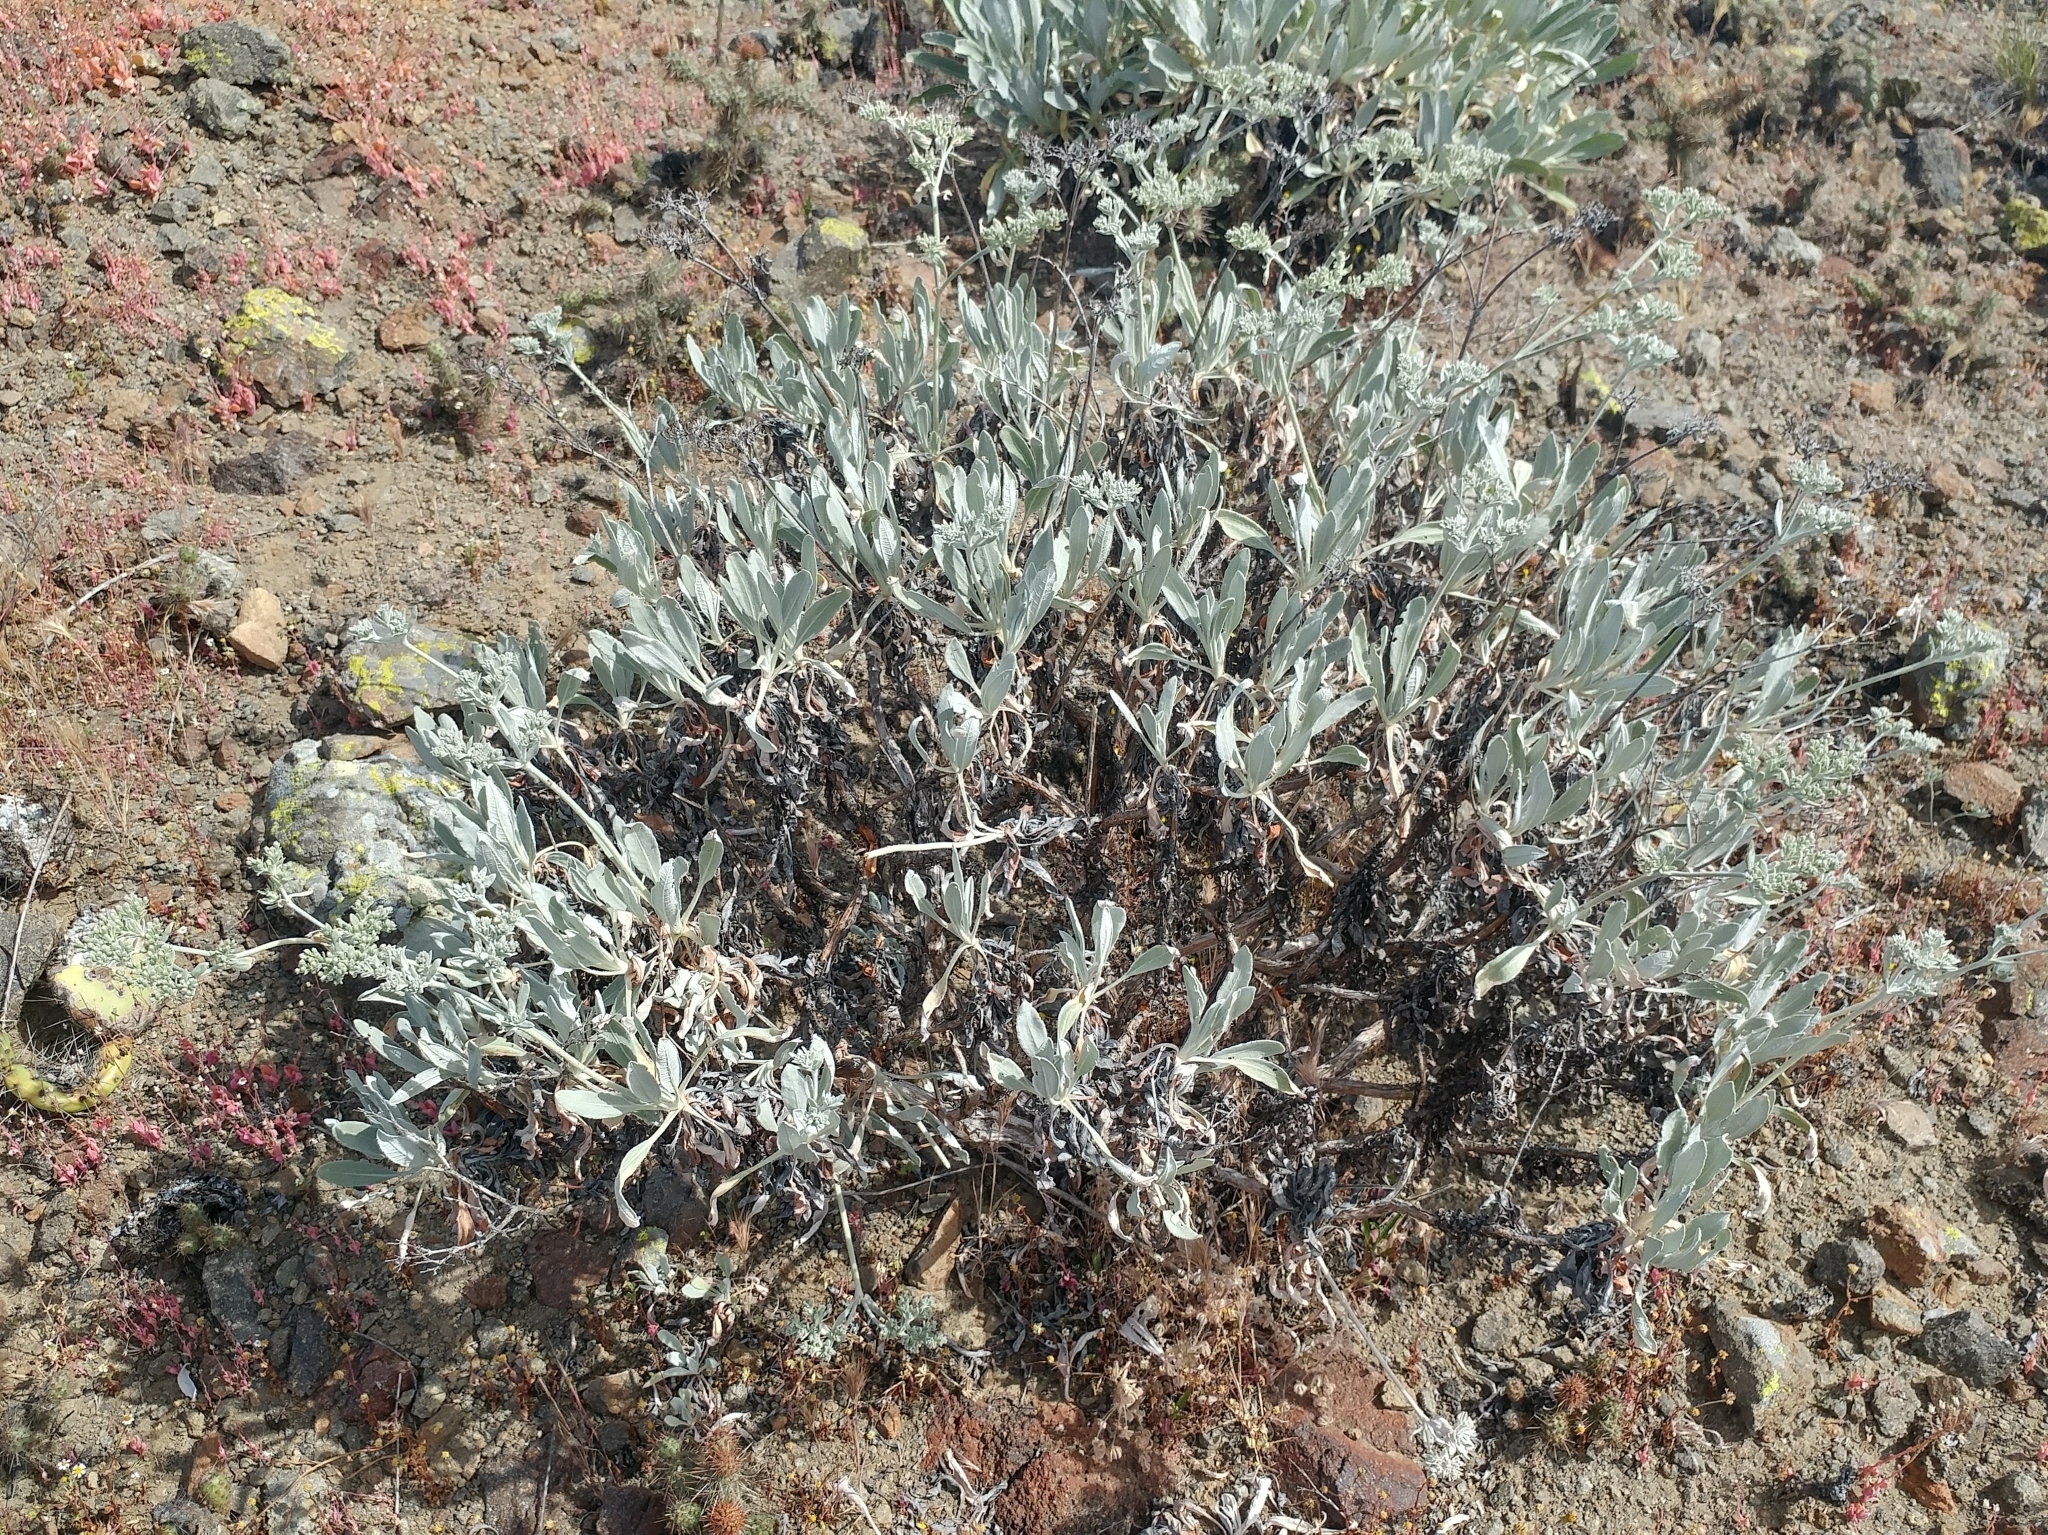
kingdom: Plantae
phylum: Tracheophyta
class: Magnoliopsida
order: Caryophyllales
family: Polygonaceae
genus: Eriogonum
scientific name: Eriogonum giganteum
